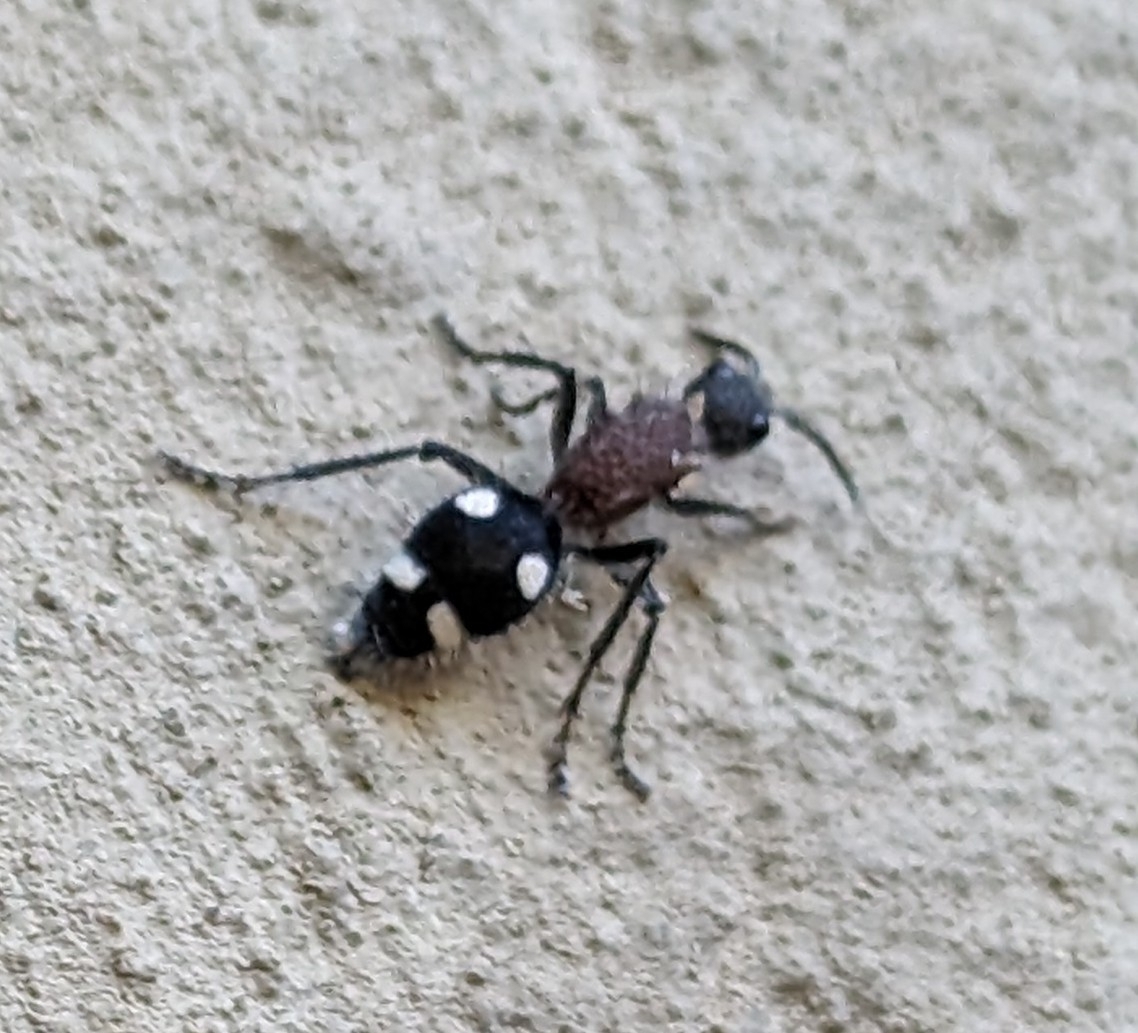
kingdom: Animalia
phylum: Arthropoda
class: Insecta
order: Hymenoptera
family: Mutillidae
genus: Dolichomutilla
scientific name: Dolichomutilla
